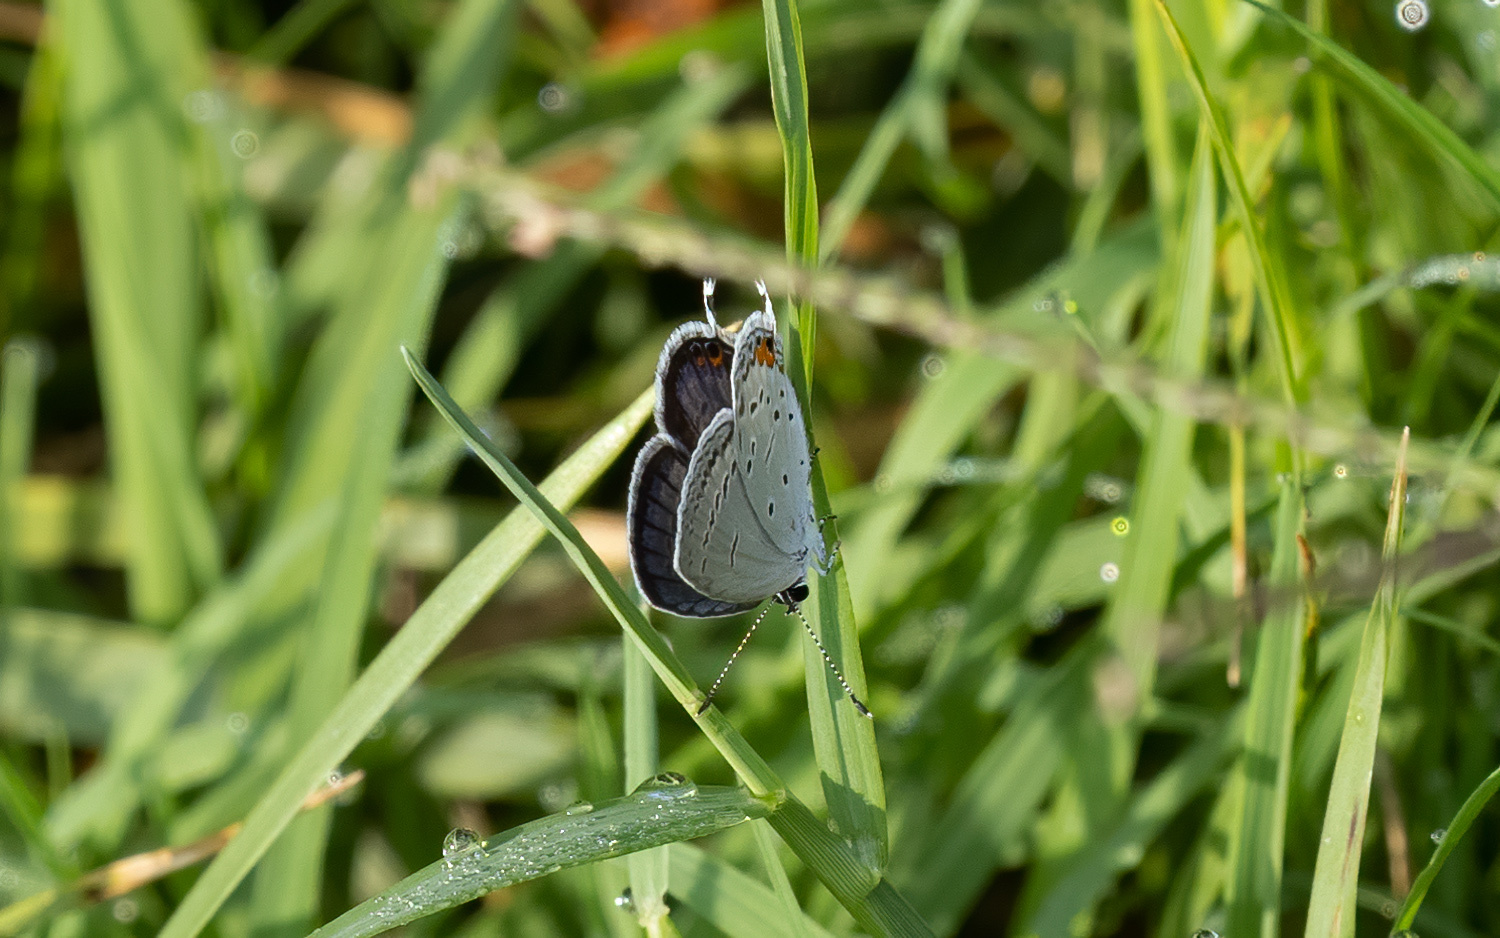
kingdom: Animalia
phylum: Arthropoda
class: Insecta
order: Lepidoptera
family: Lycaenidae
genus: Elkalyce
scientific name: Elkalyce comyntas
